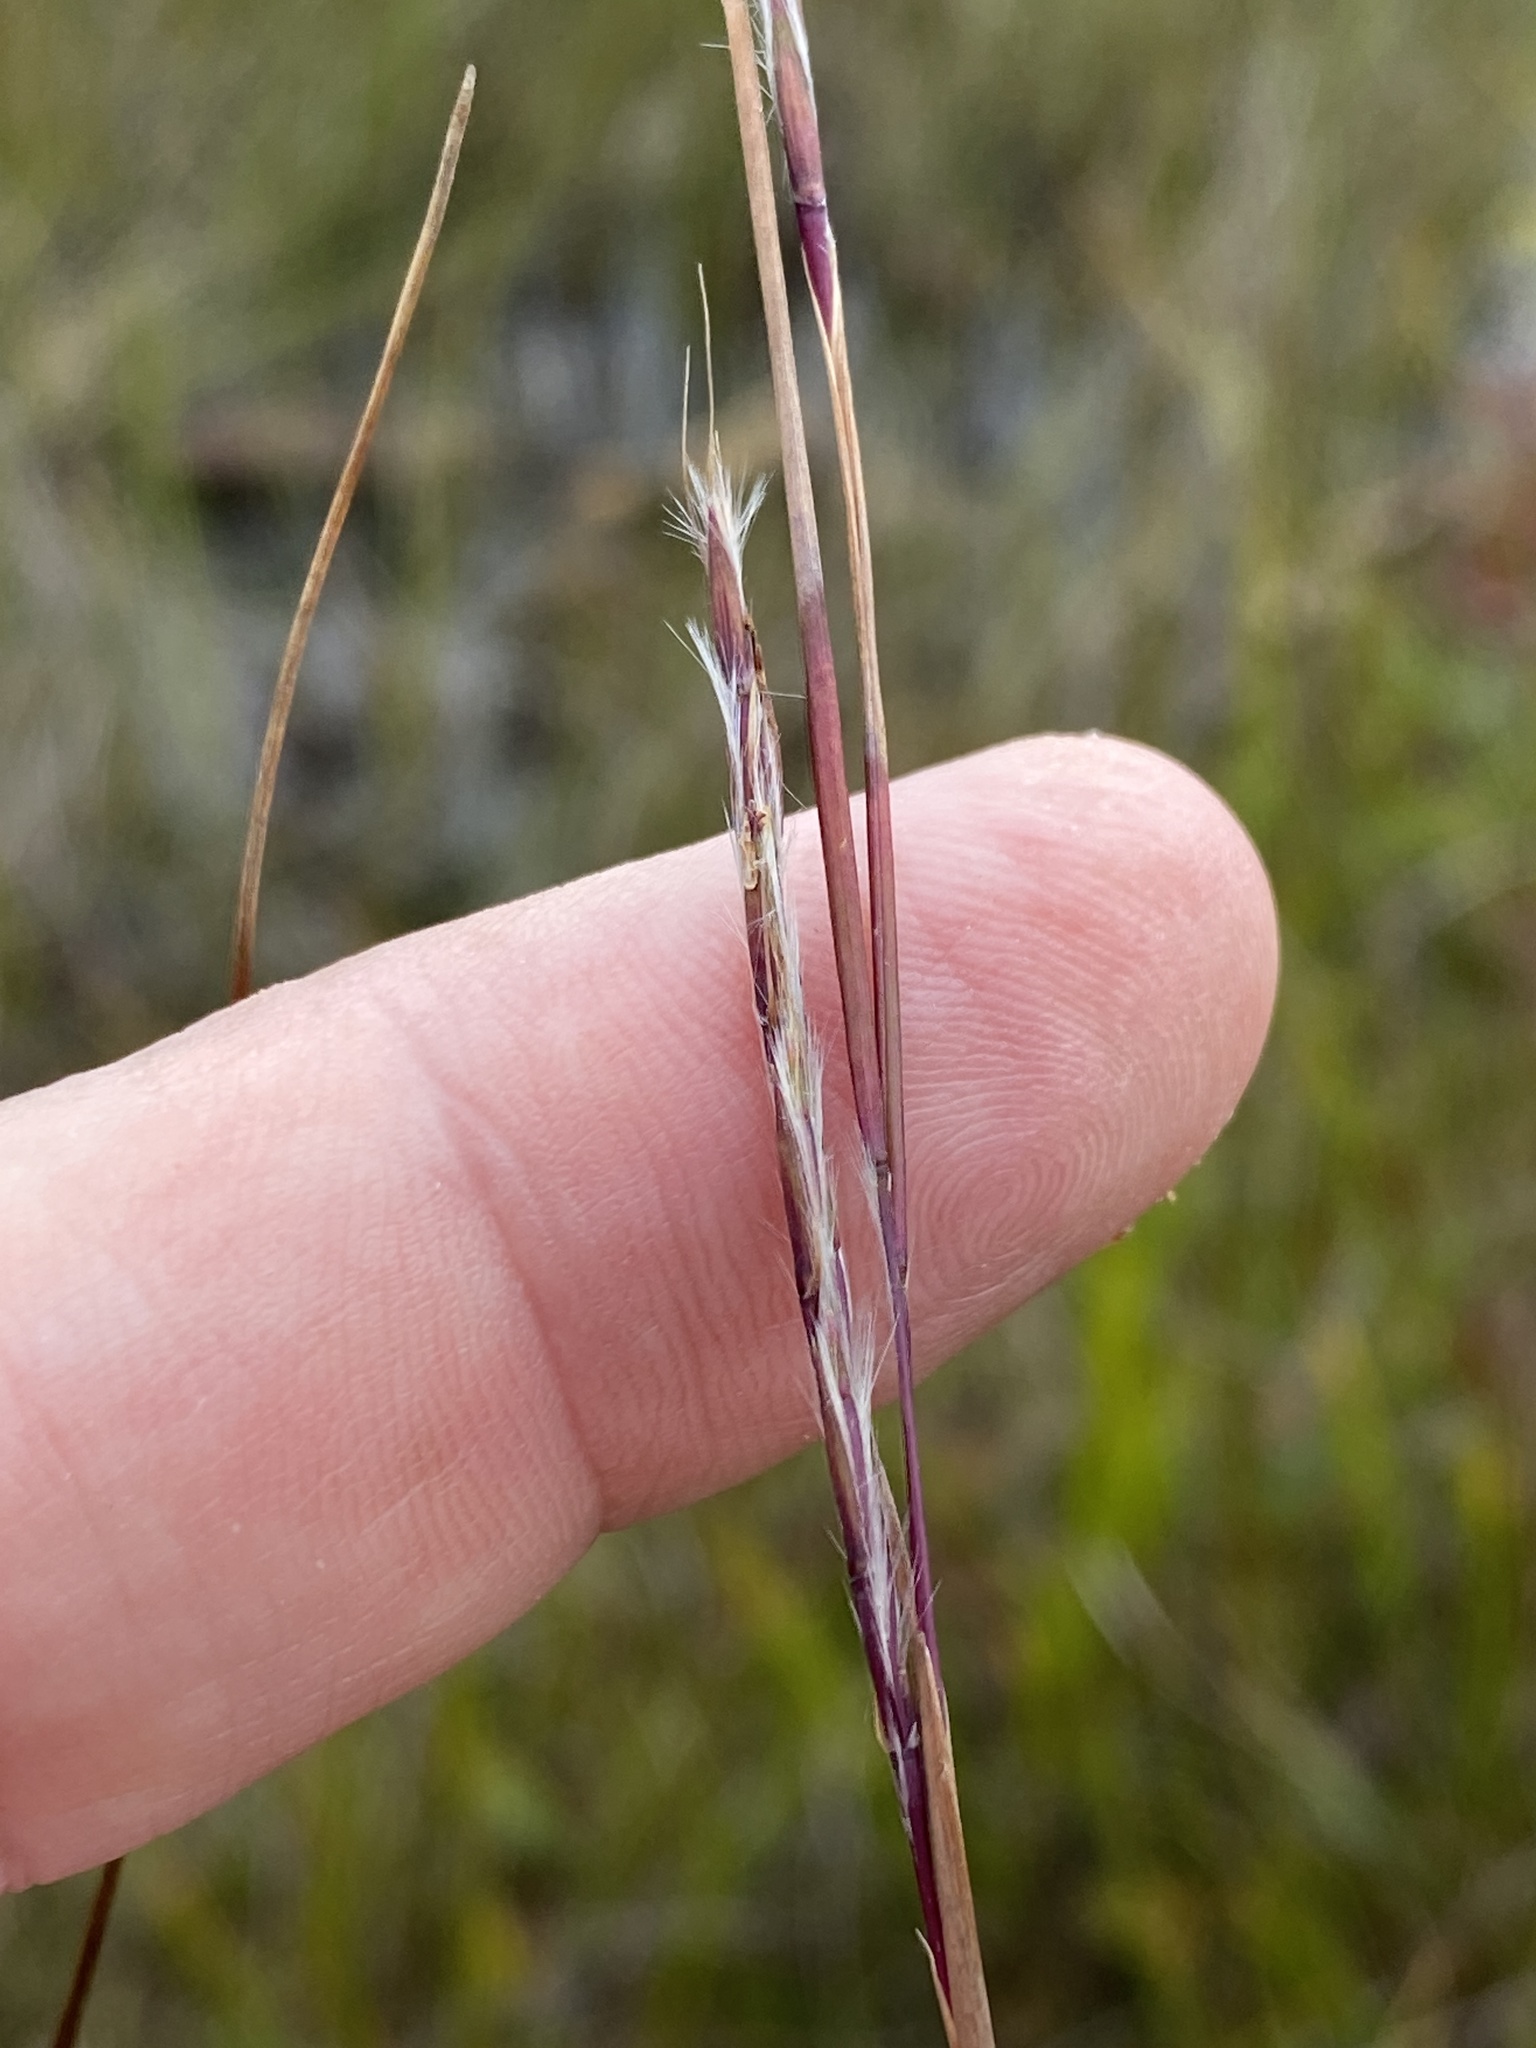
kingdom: Plantae
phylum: Tracheophyta
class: Liliopsida
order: Poales
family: Poaceae
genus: Schizachyrium
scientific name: Schizachyrium scoparium
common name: Little bluestem
